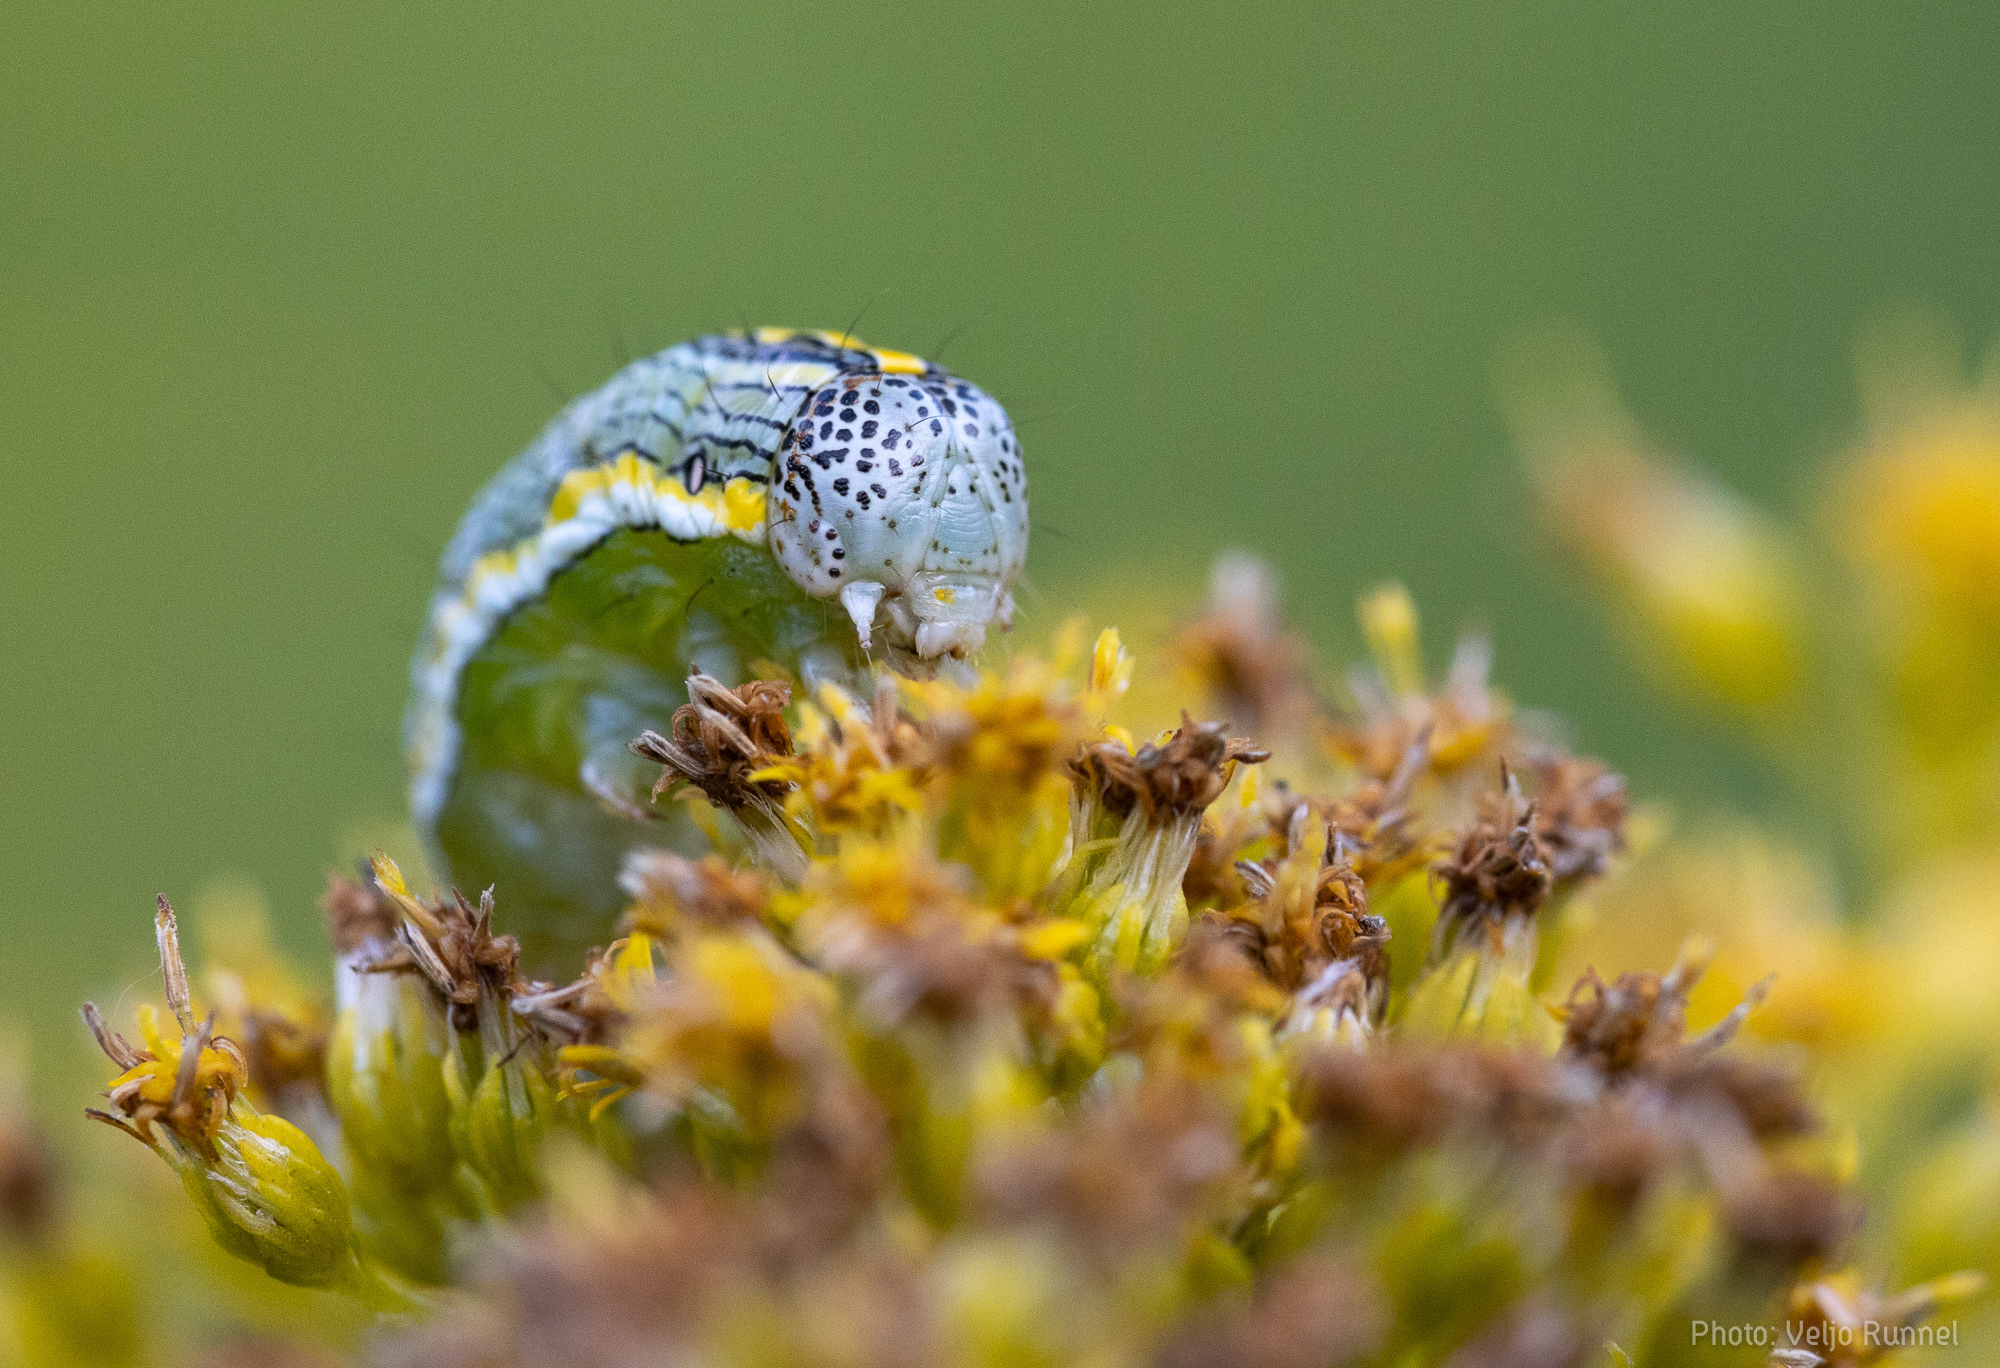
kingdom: Animalia
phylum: Arthropoda
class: Insecta
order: Lepidoptera
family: Noctuidae
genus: Cucullia
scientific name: Cucullia asteris
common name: Star-wort
